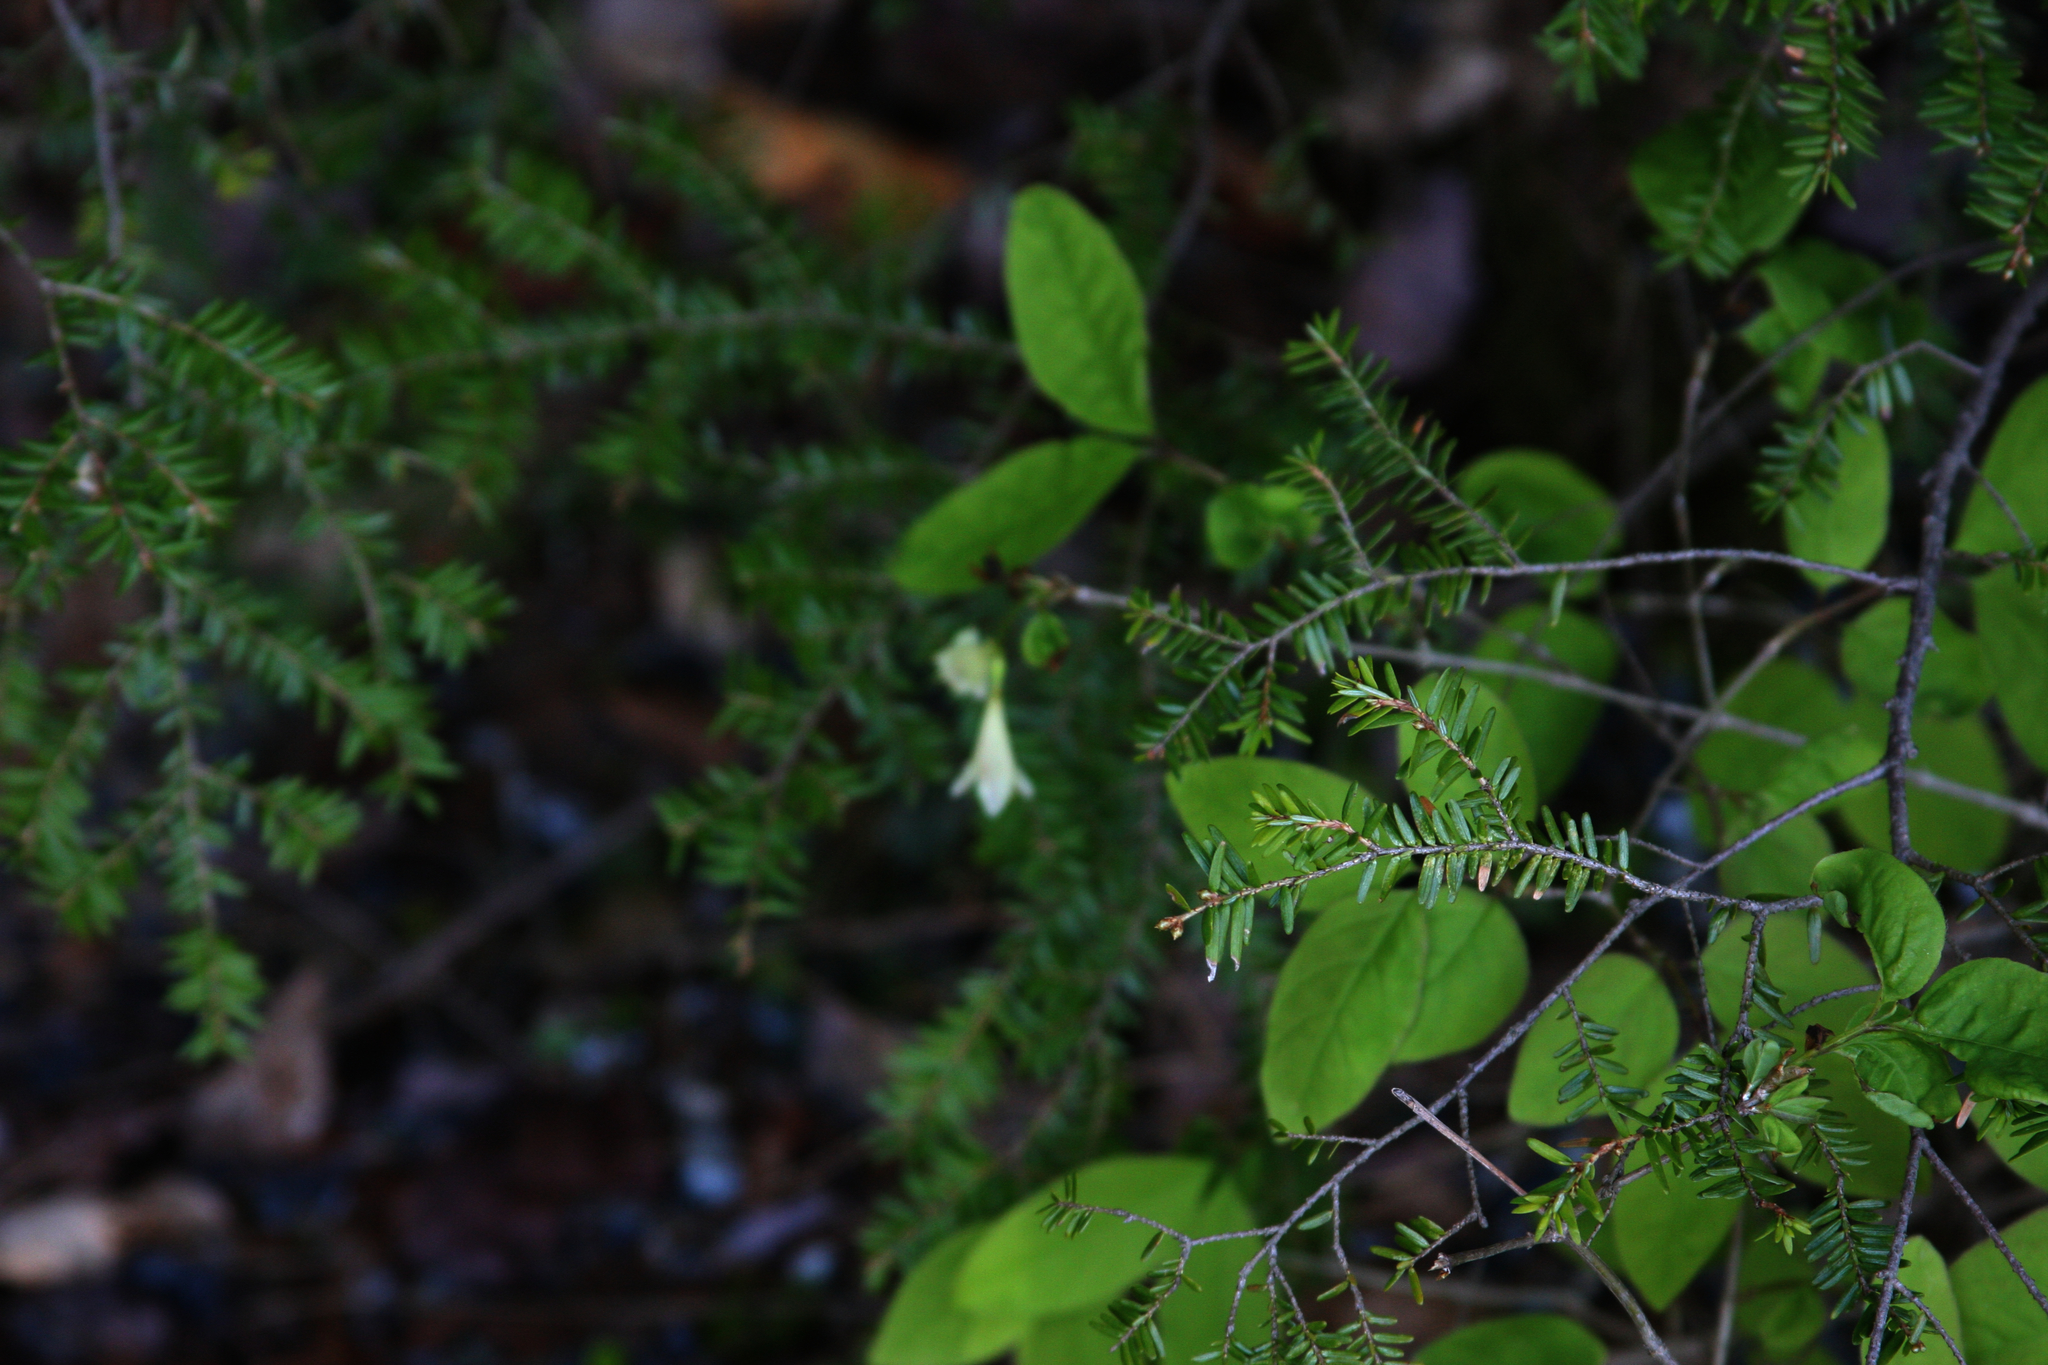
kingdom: Plantae
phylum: Tracheophyta
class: Pinopsida
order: Pinales
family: Pinaceae
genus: Tsuga
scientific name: Tsuga canadensis
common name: Eastern hemlock
